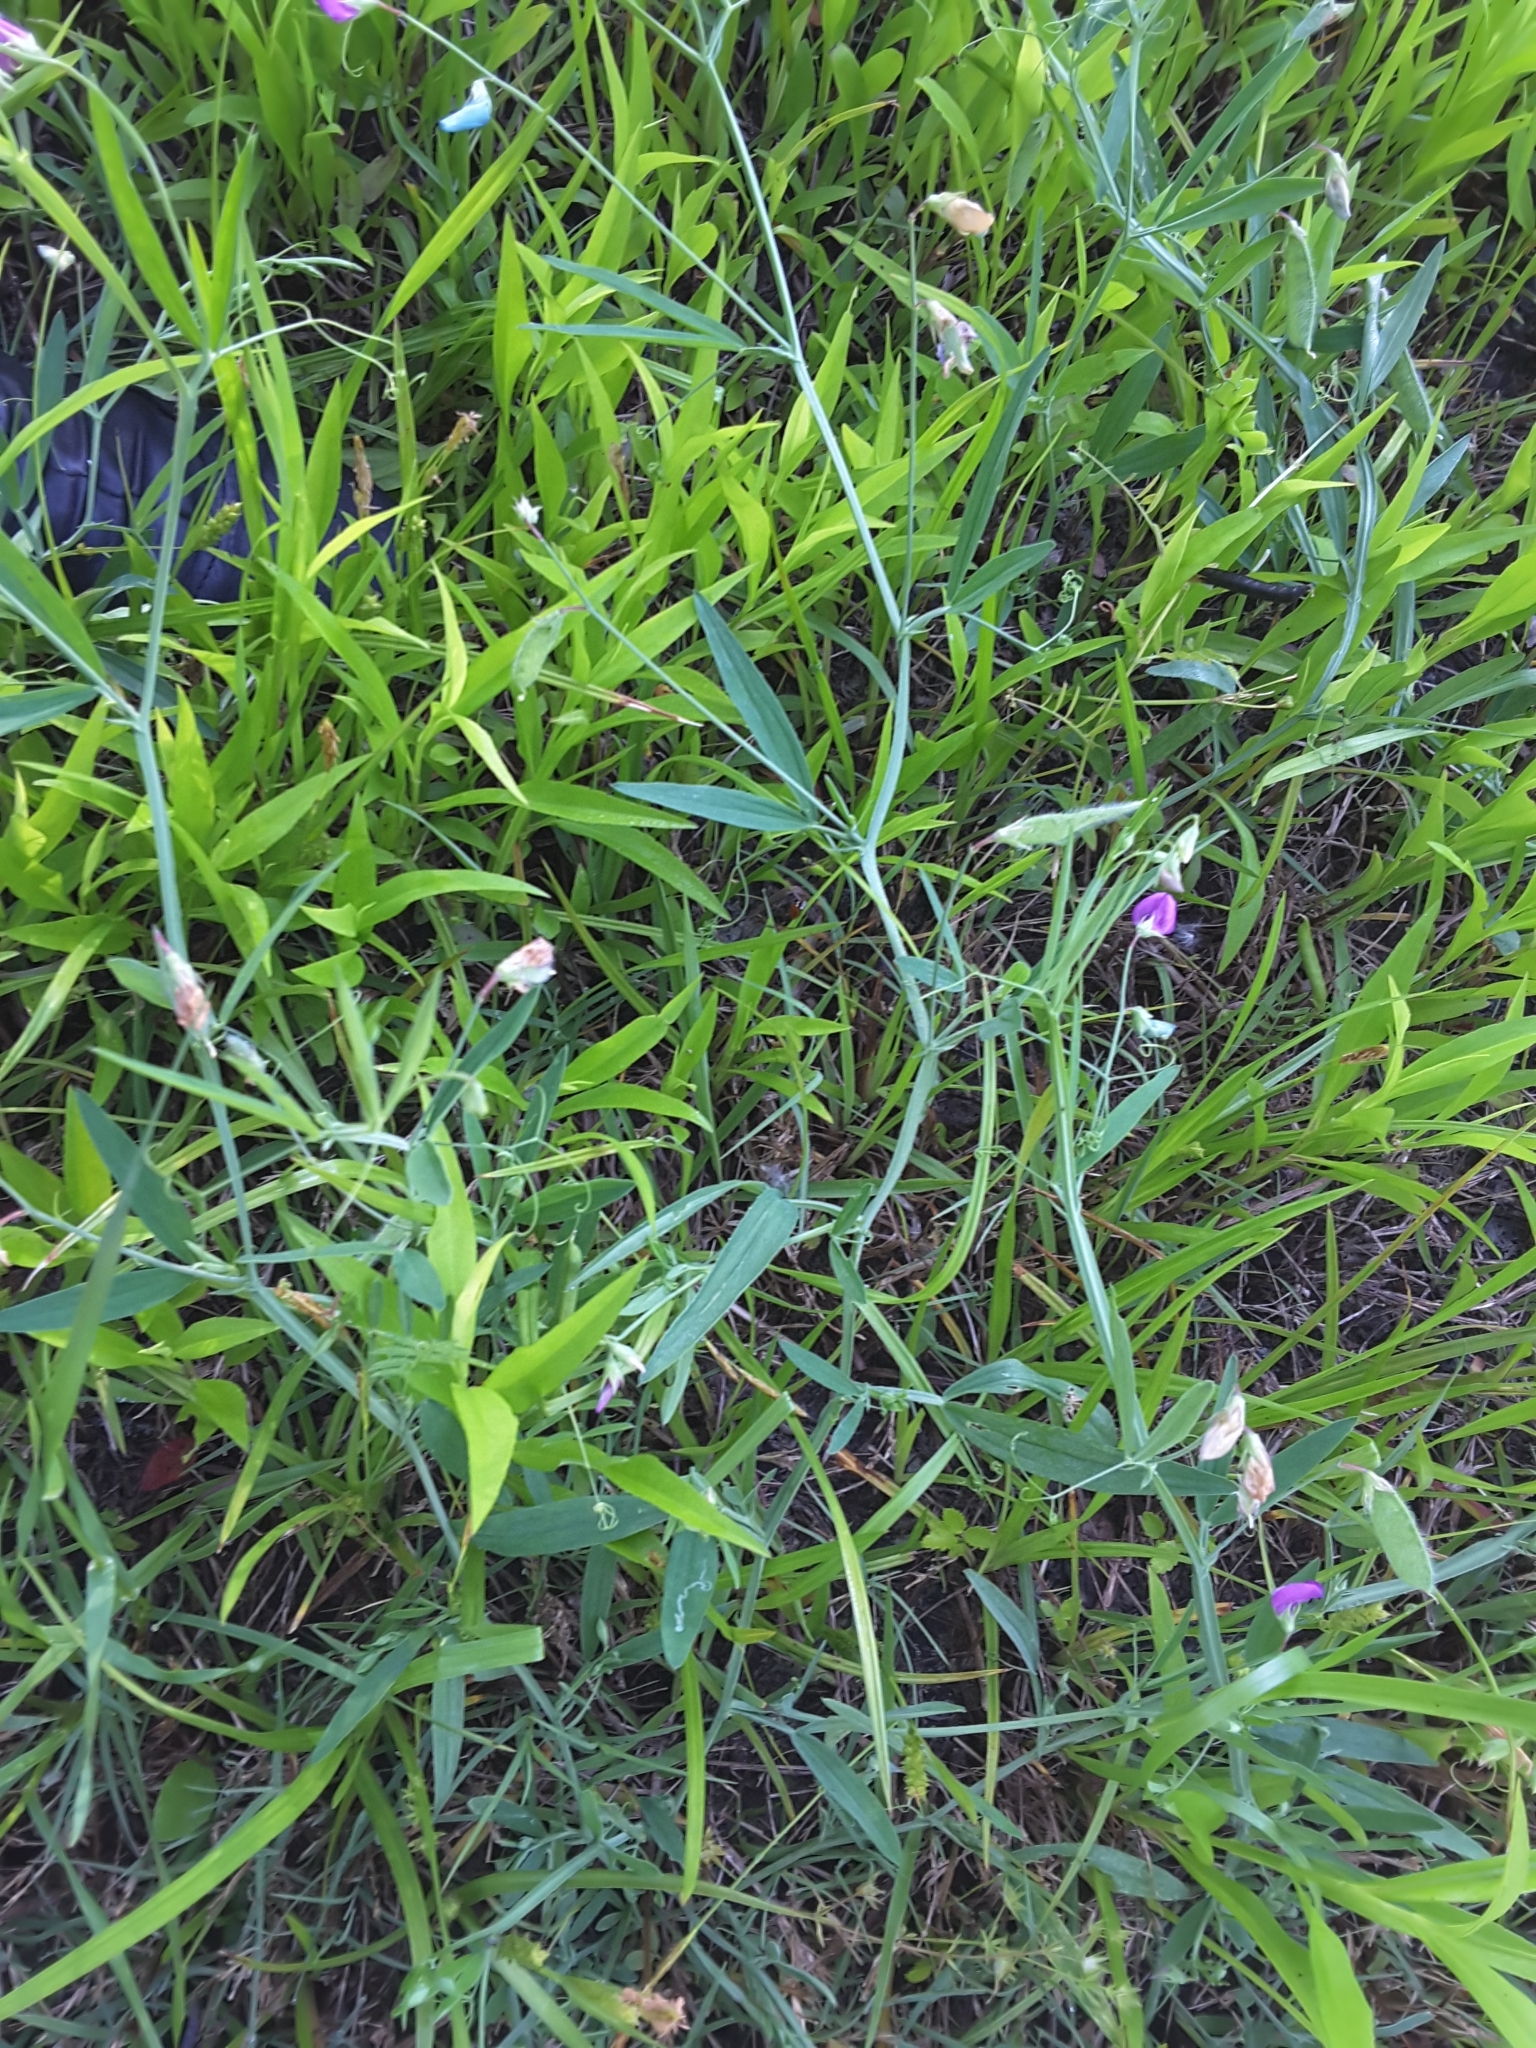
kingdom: Plantae
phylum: Tracheophyta
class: Magnoliopsida
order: Fabales
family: Fabaceae
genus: Lathyrus
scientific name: Lathyrus hirsutus
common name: Hairy vetchling
